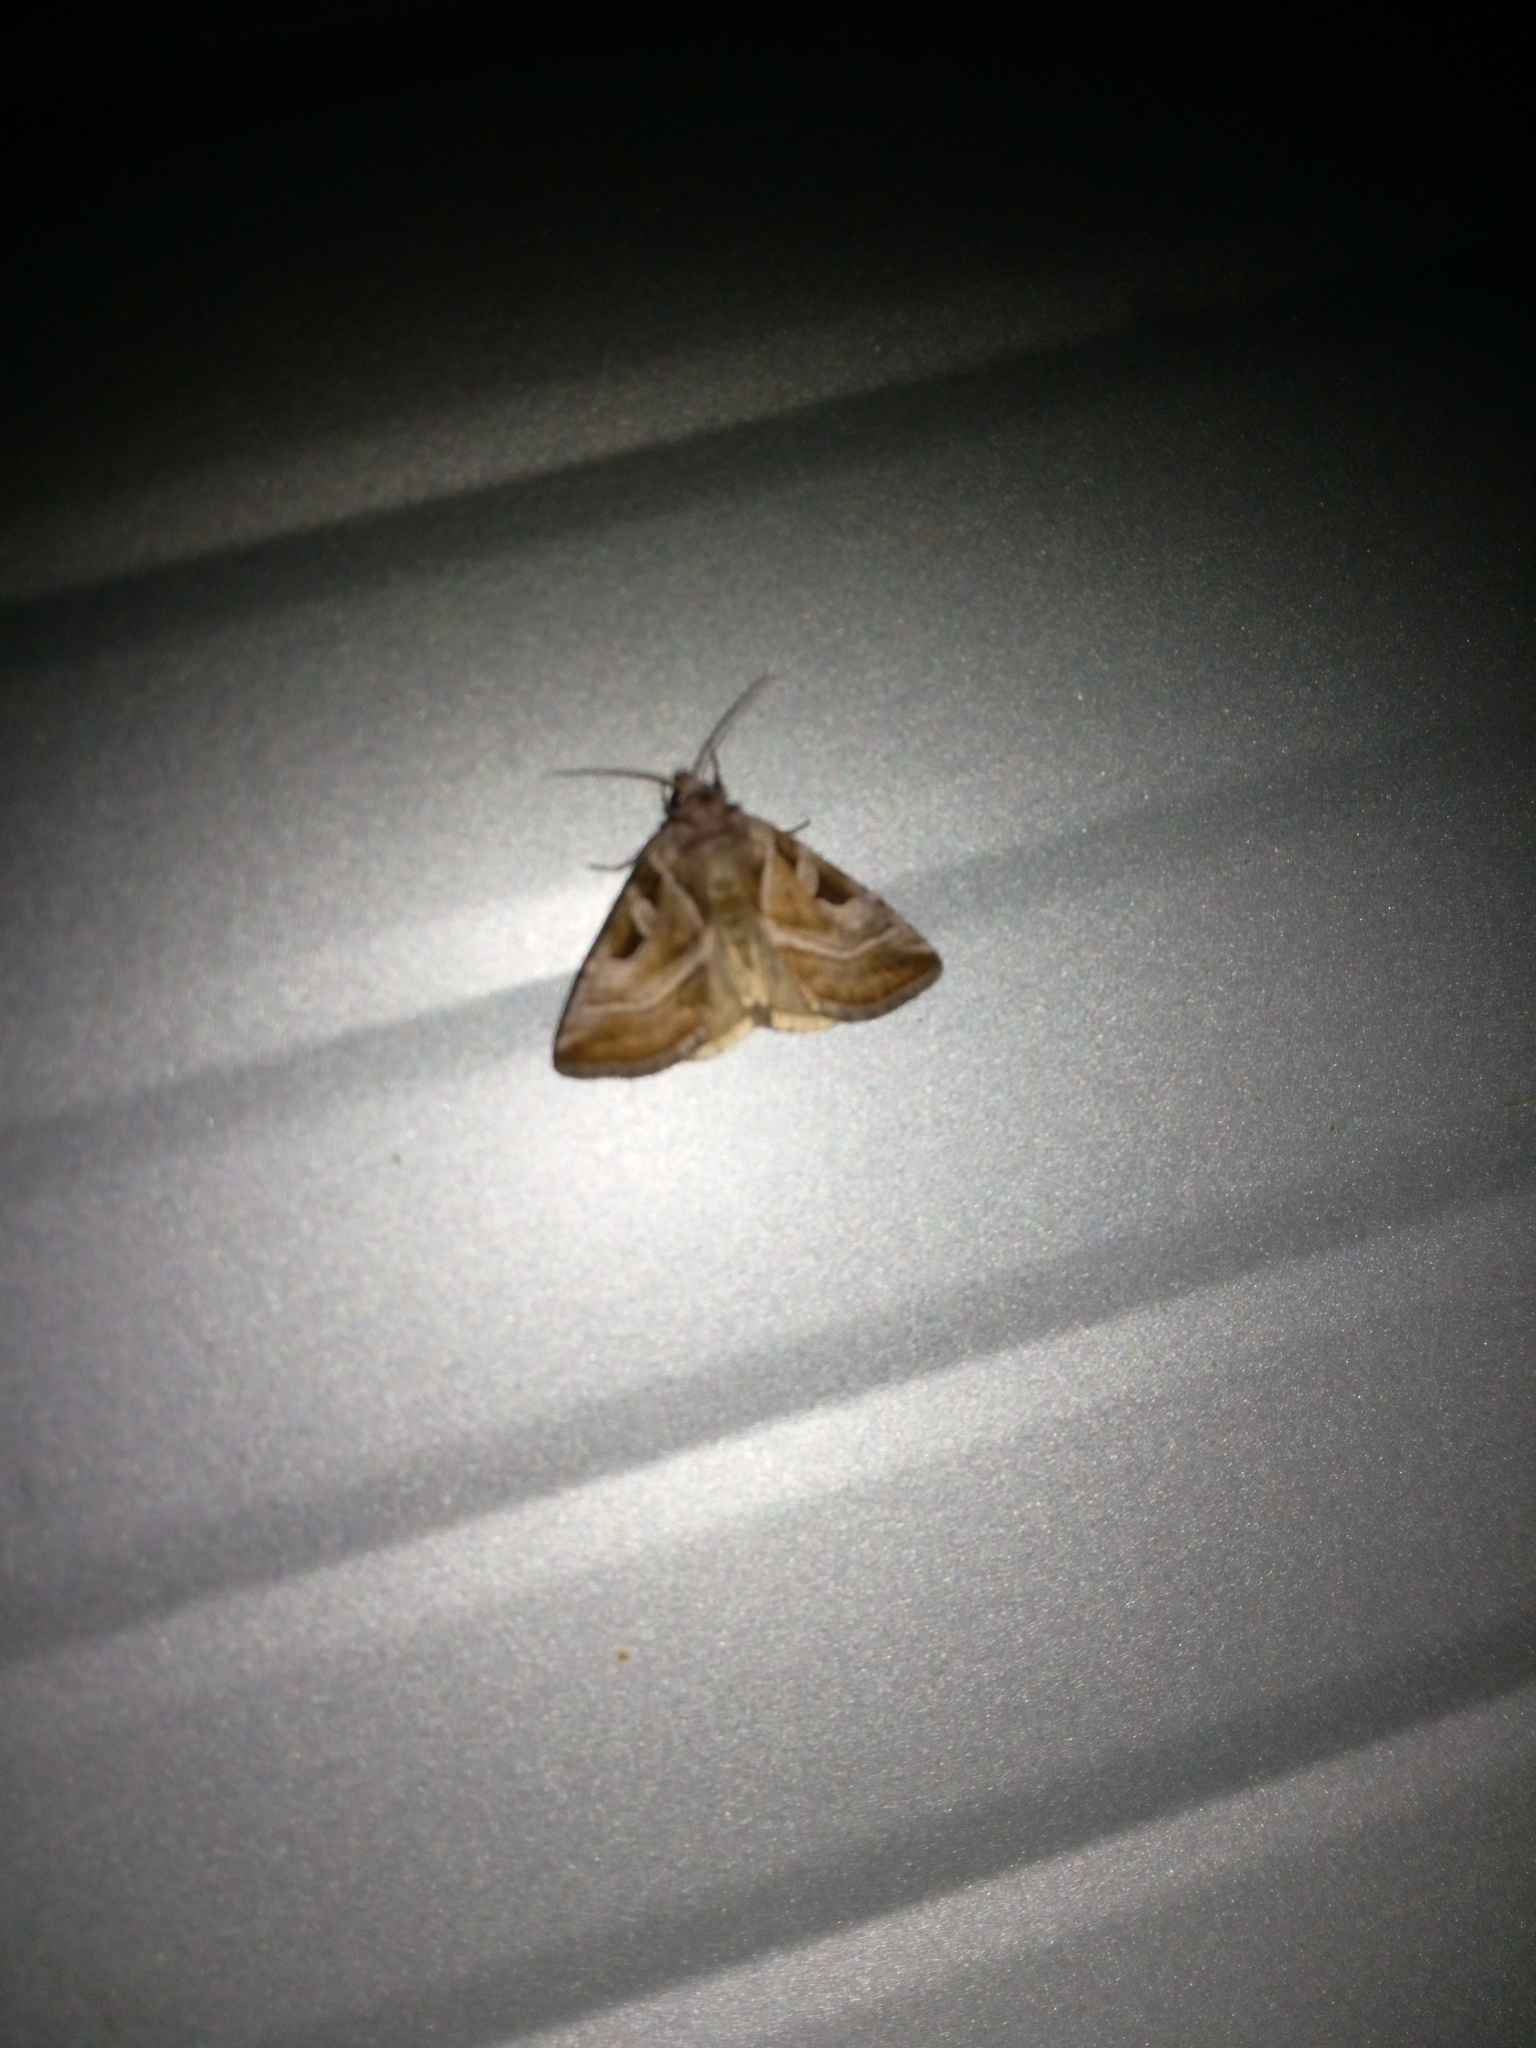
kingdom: Animalia
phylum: Arthropoda
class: Insecta
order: Lepidoptera
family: Noctuidae
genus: Eucarta
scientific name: Eucarta virgo
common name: Silvery gem
